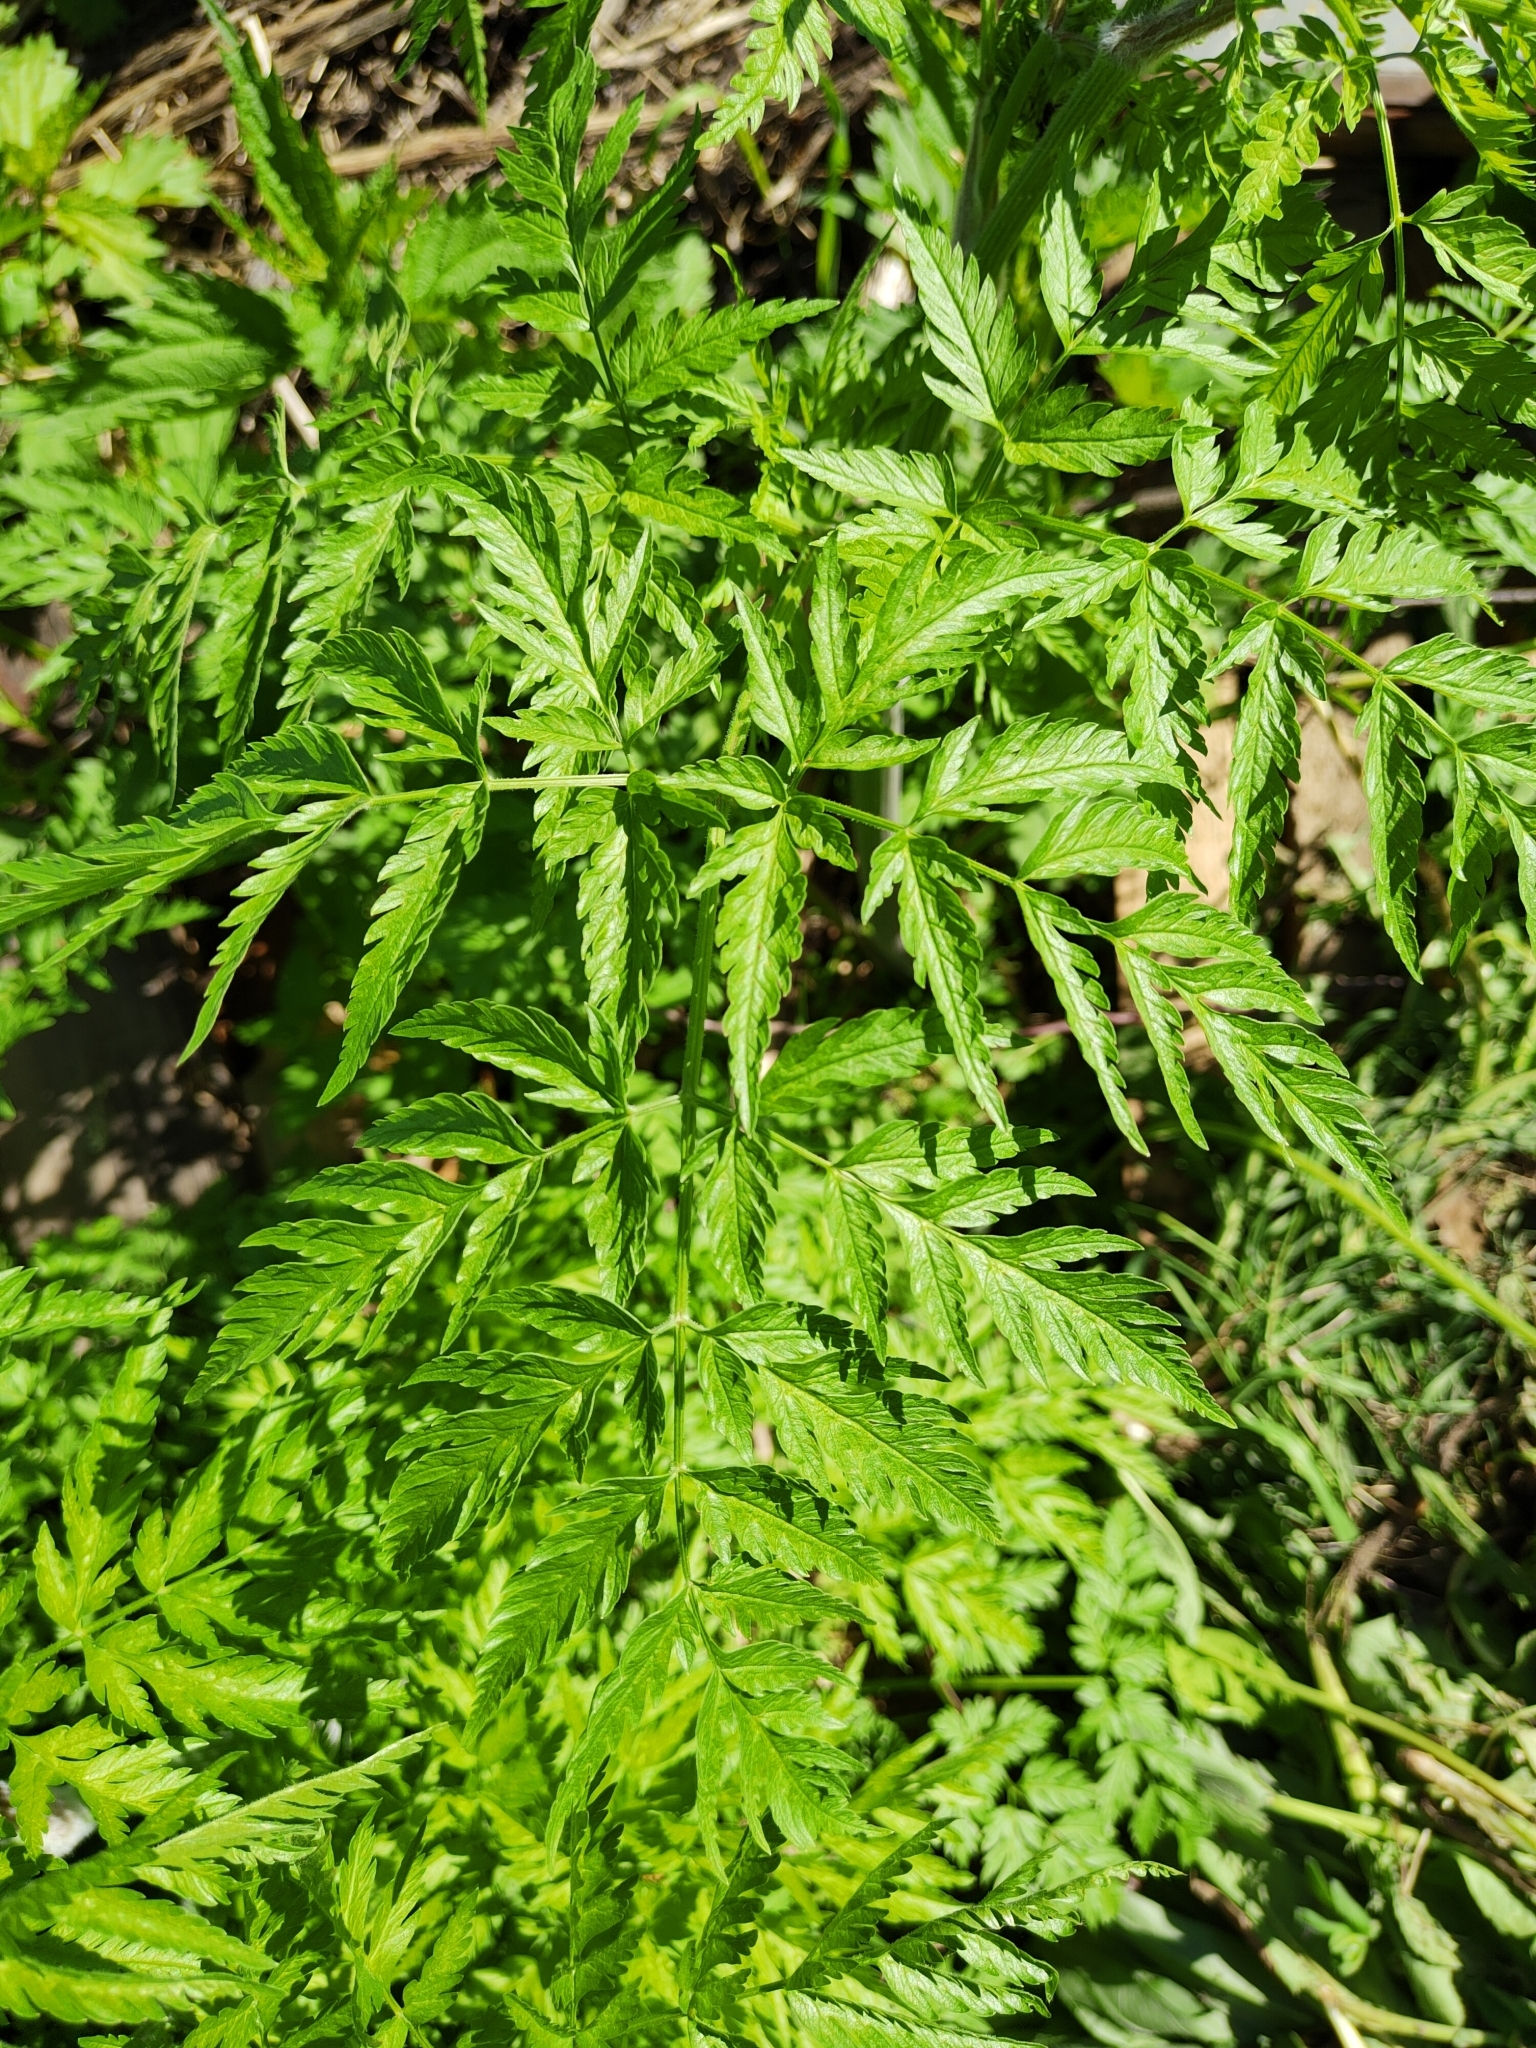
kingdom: Plantae
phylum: Tracheophyta
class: Magnoliopsida
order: Apiales
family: Apiaceae
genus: Anthriscus
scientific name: Anthriscus sylvestris
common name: Cow parsley
